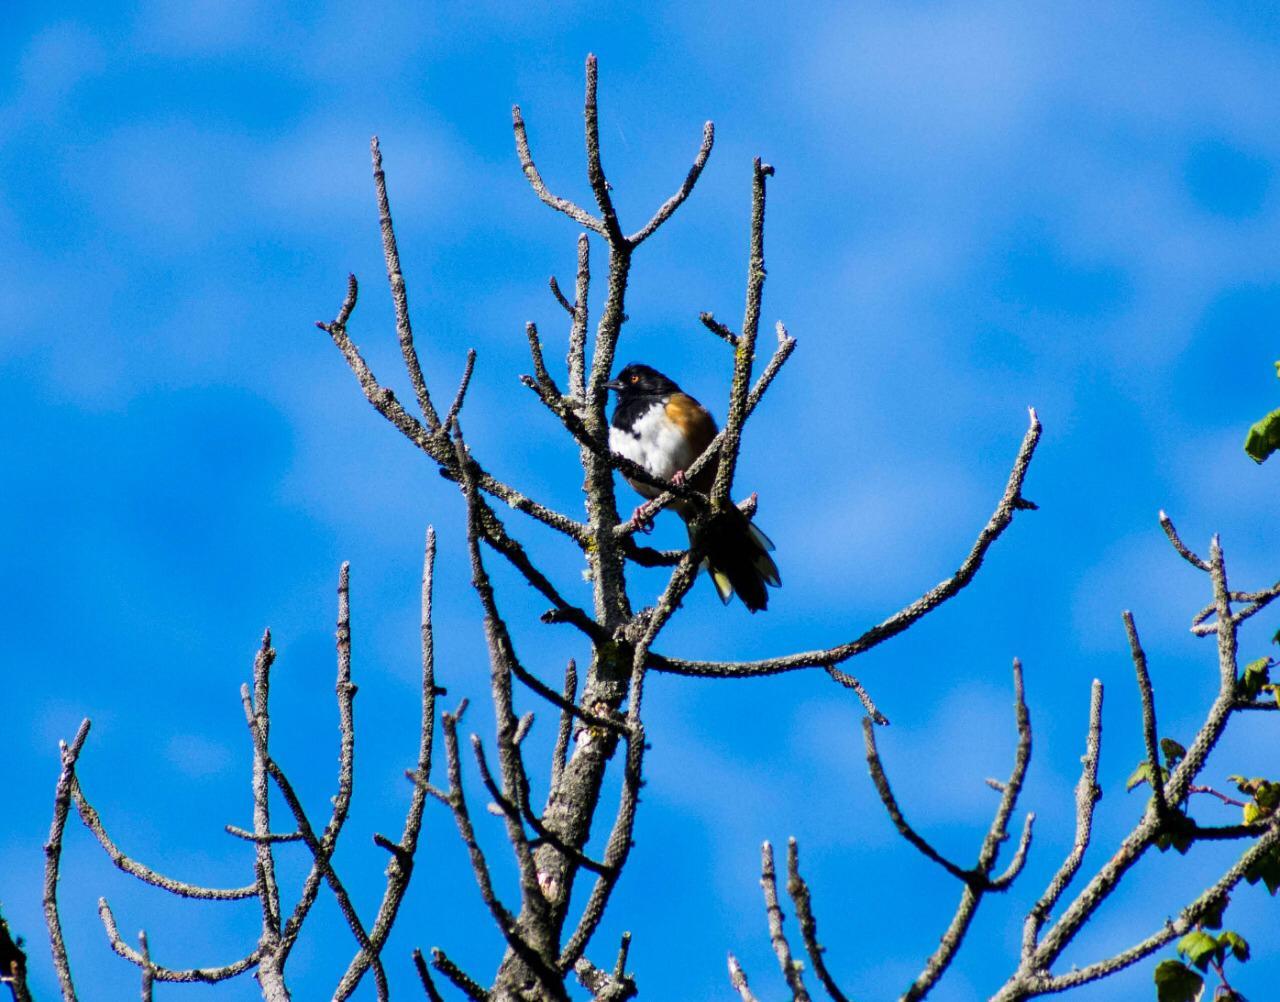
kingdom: Animalia
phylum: Chordata
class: Aves
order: Passeriformes
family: Passerellidae
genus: Pipilo
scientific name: Pipilo maculatus
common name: Spotted towhee
